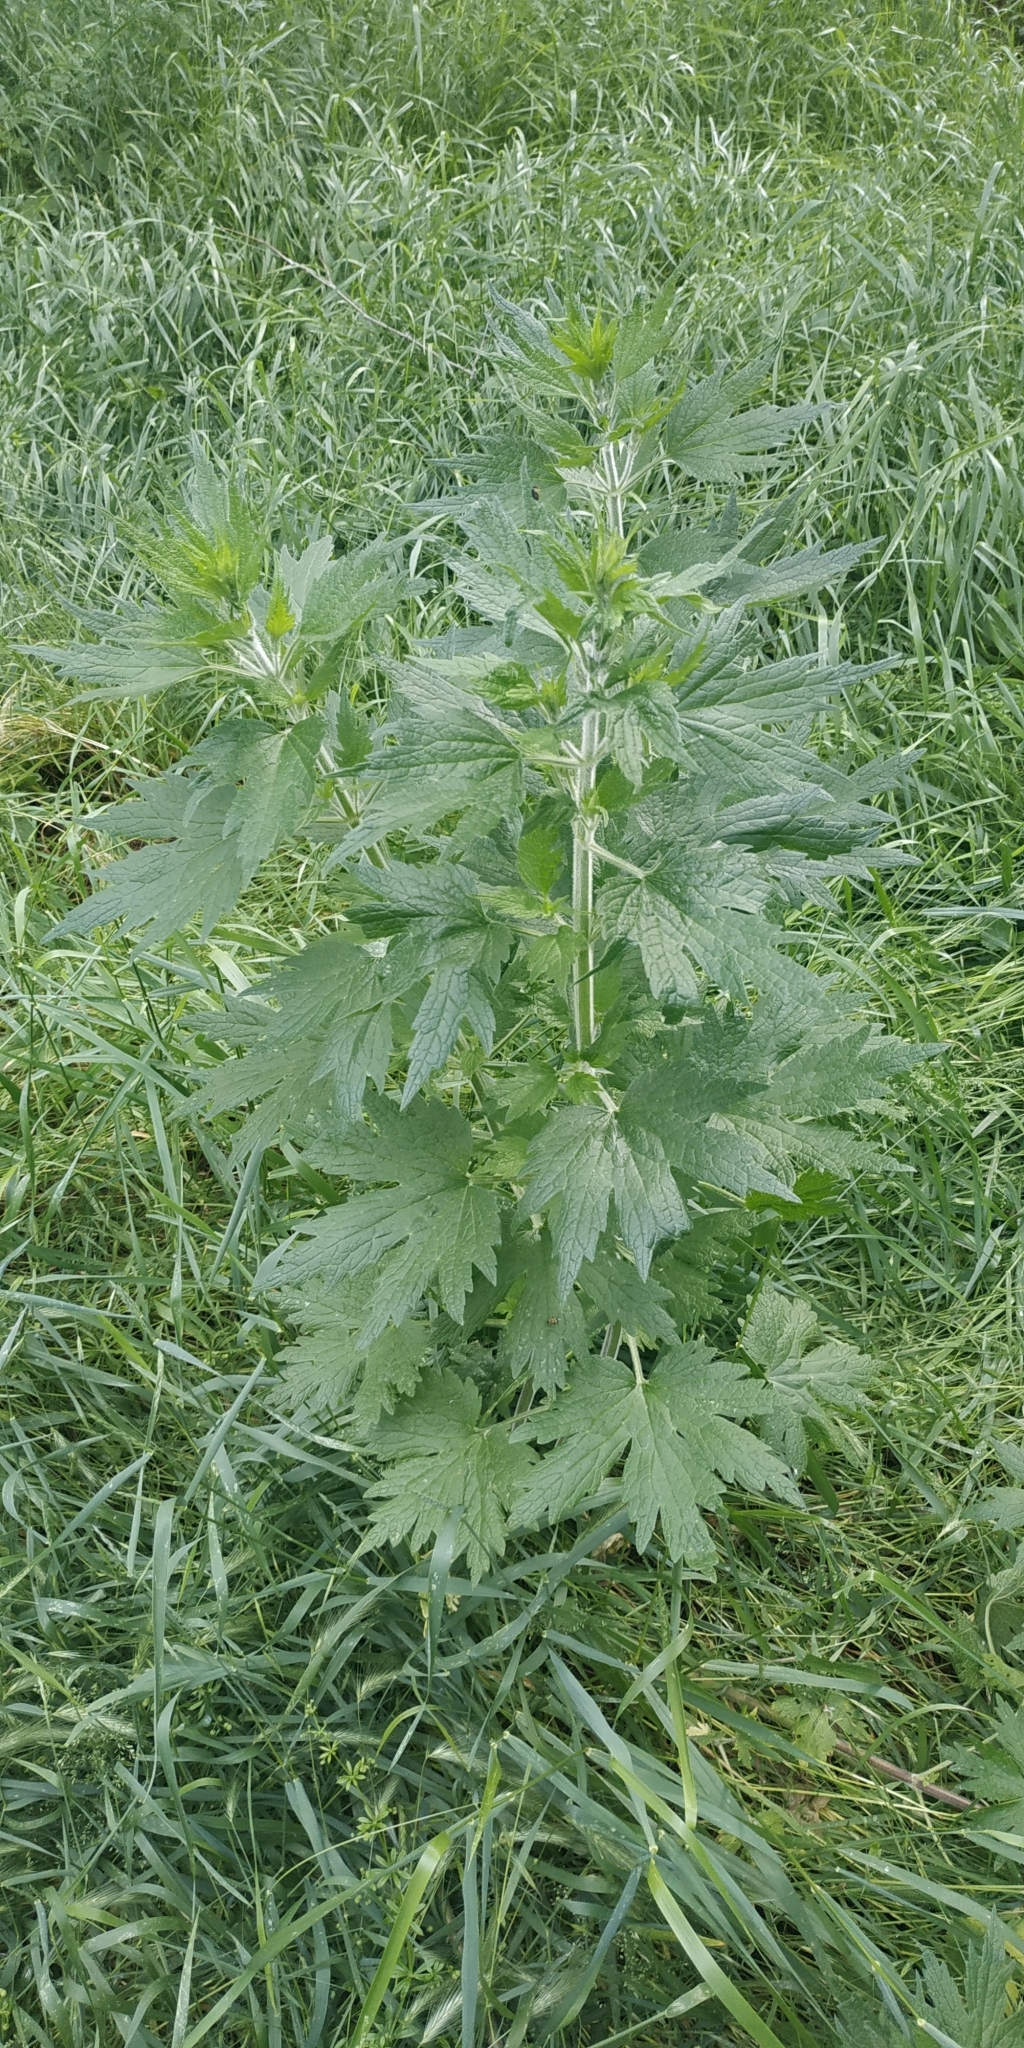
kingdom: Plantae
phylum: Tracheophyta
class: Magnoliopsida
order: Lamiales
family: Lamiaceae
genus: Leonurus
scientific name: Leonurus quinquelobatus
